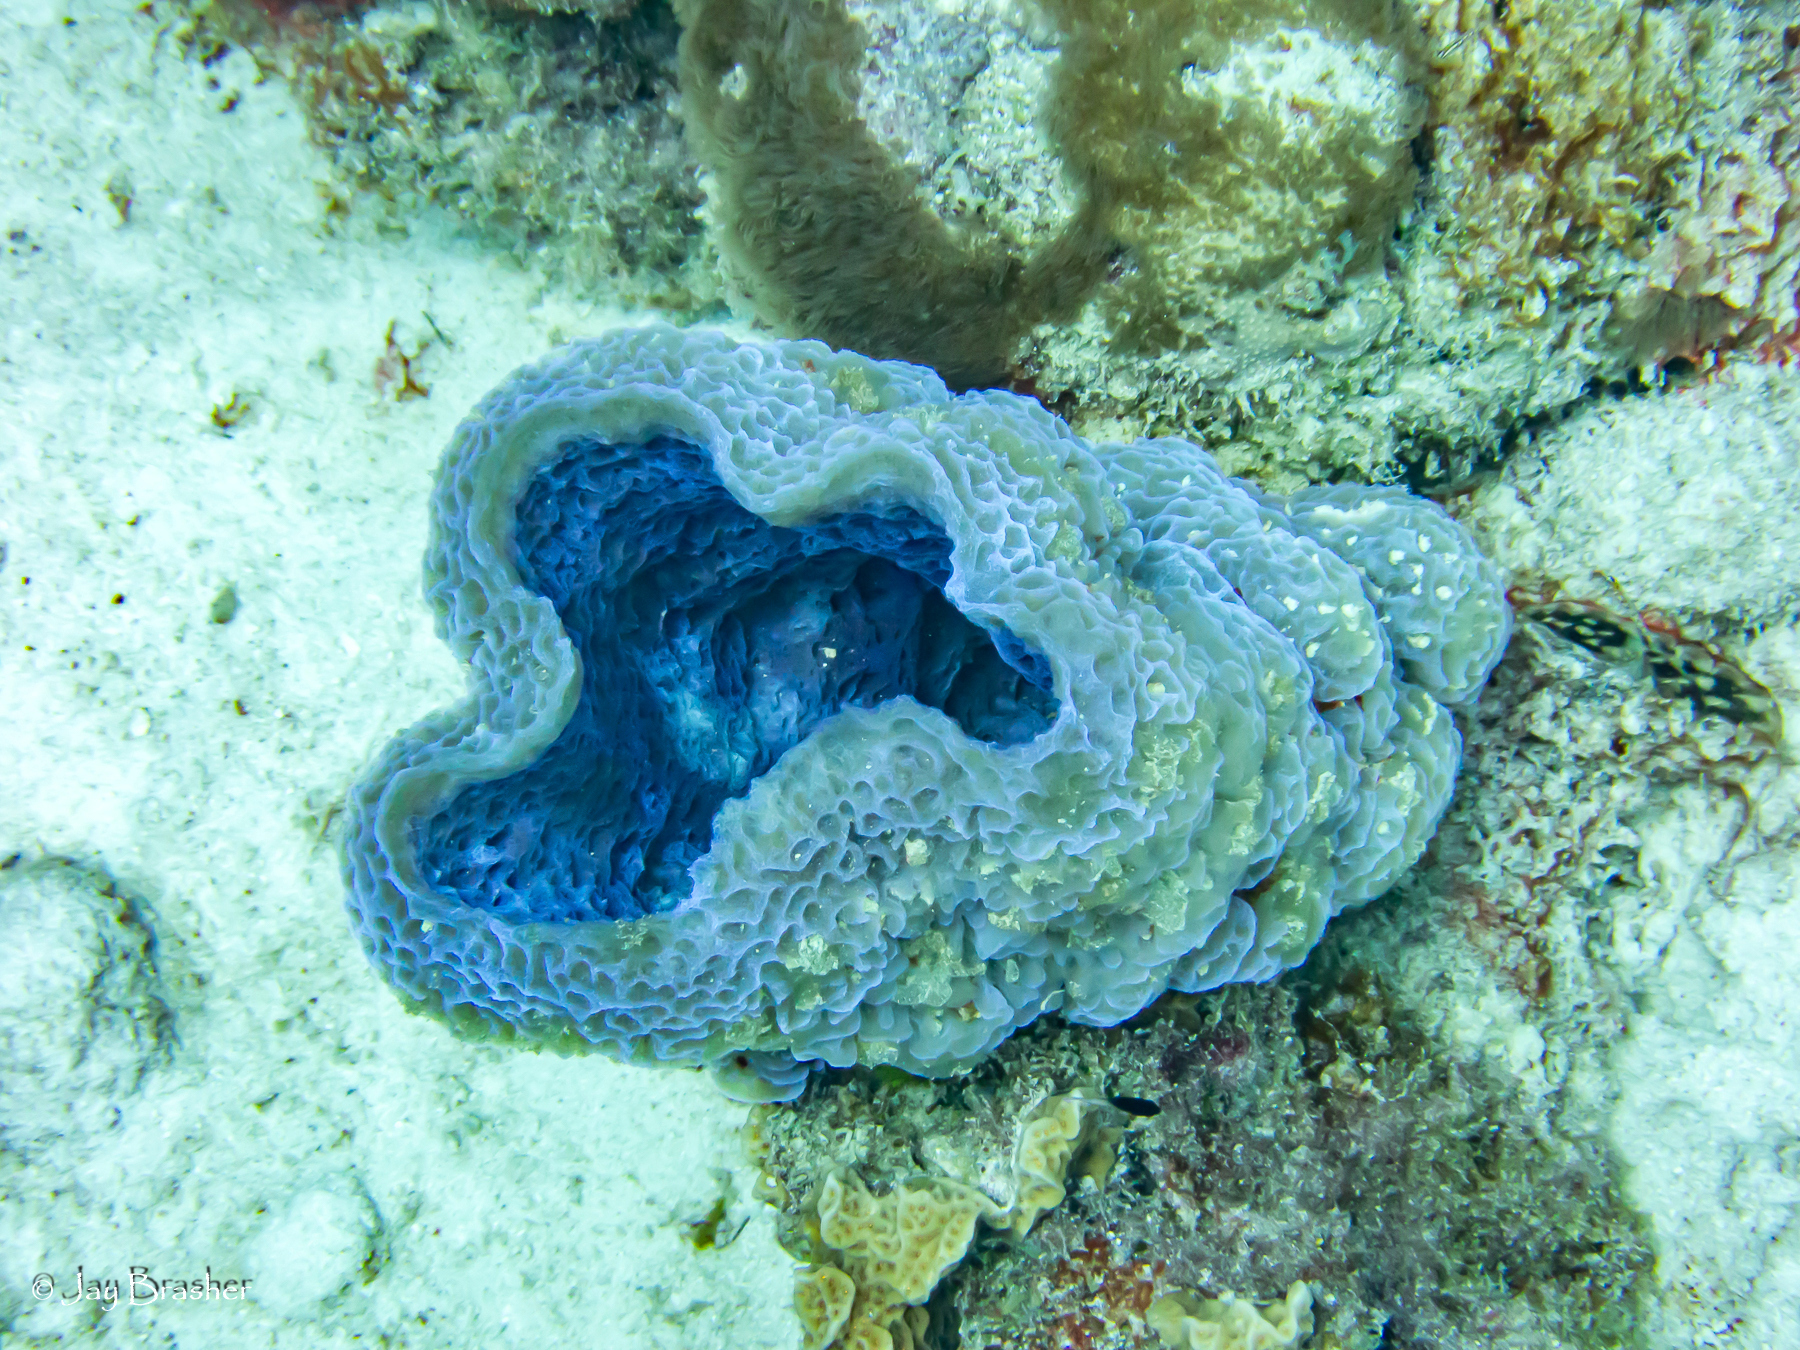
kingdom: Animalia
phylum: Porifera
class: Demospongiae
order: Haplosclerida
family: Callyspongiidae
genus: Callyspongia
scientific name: Callyspongia plicifera
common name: Azure vase sponge
